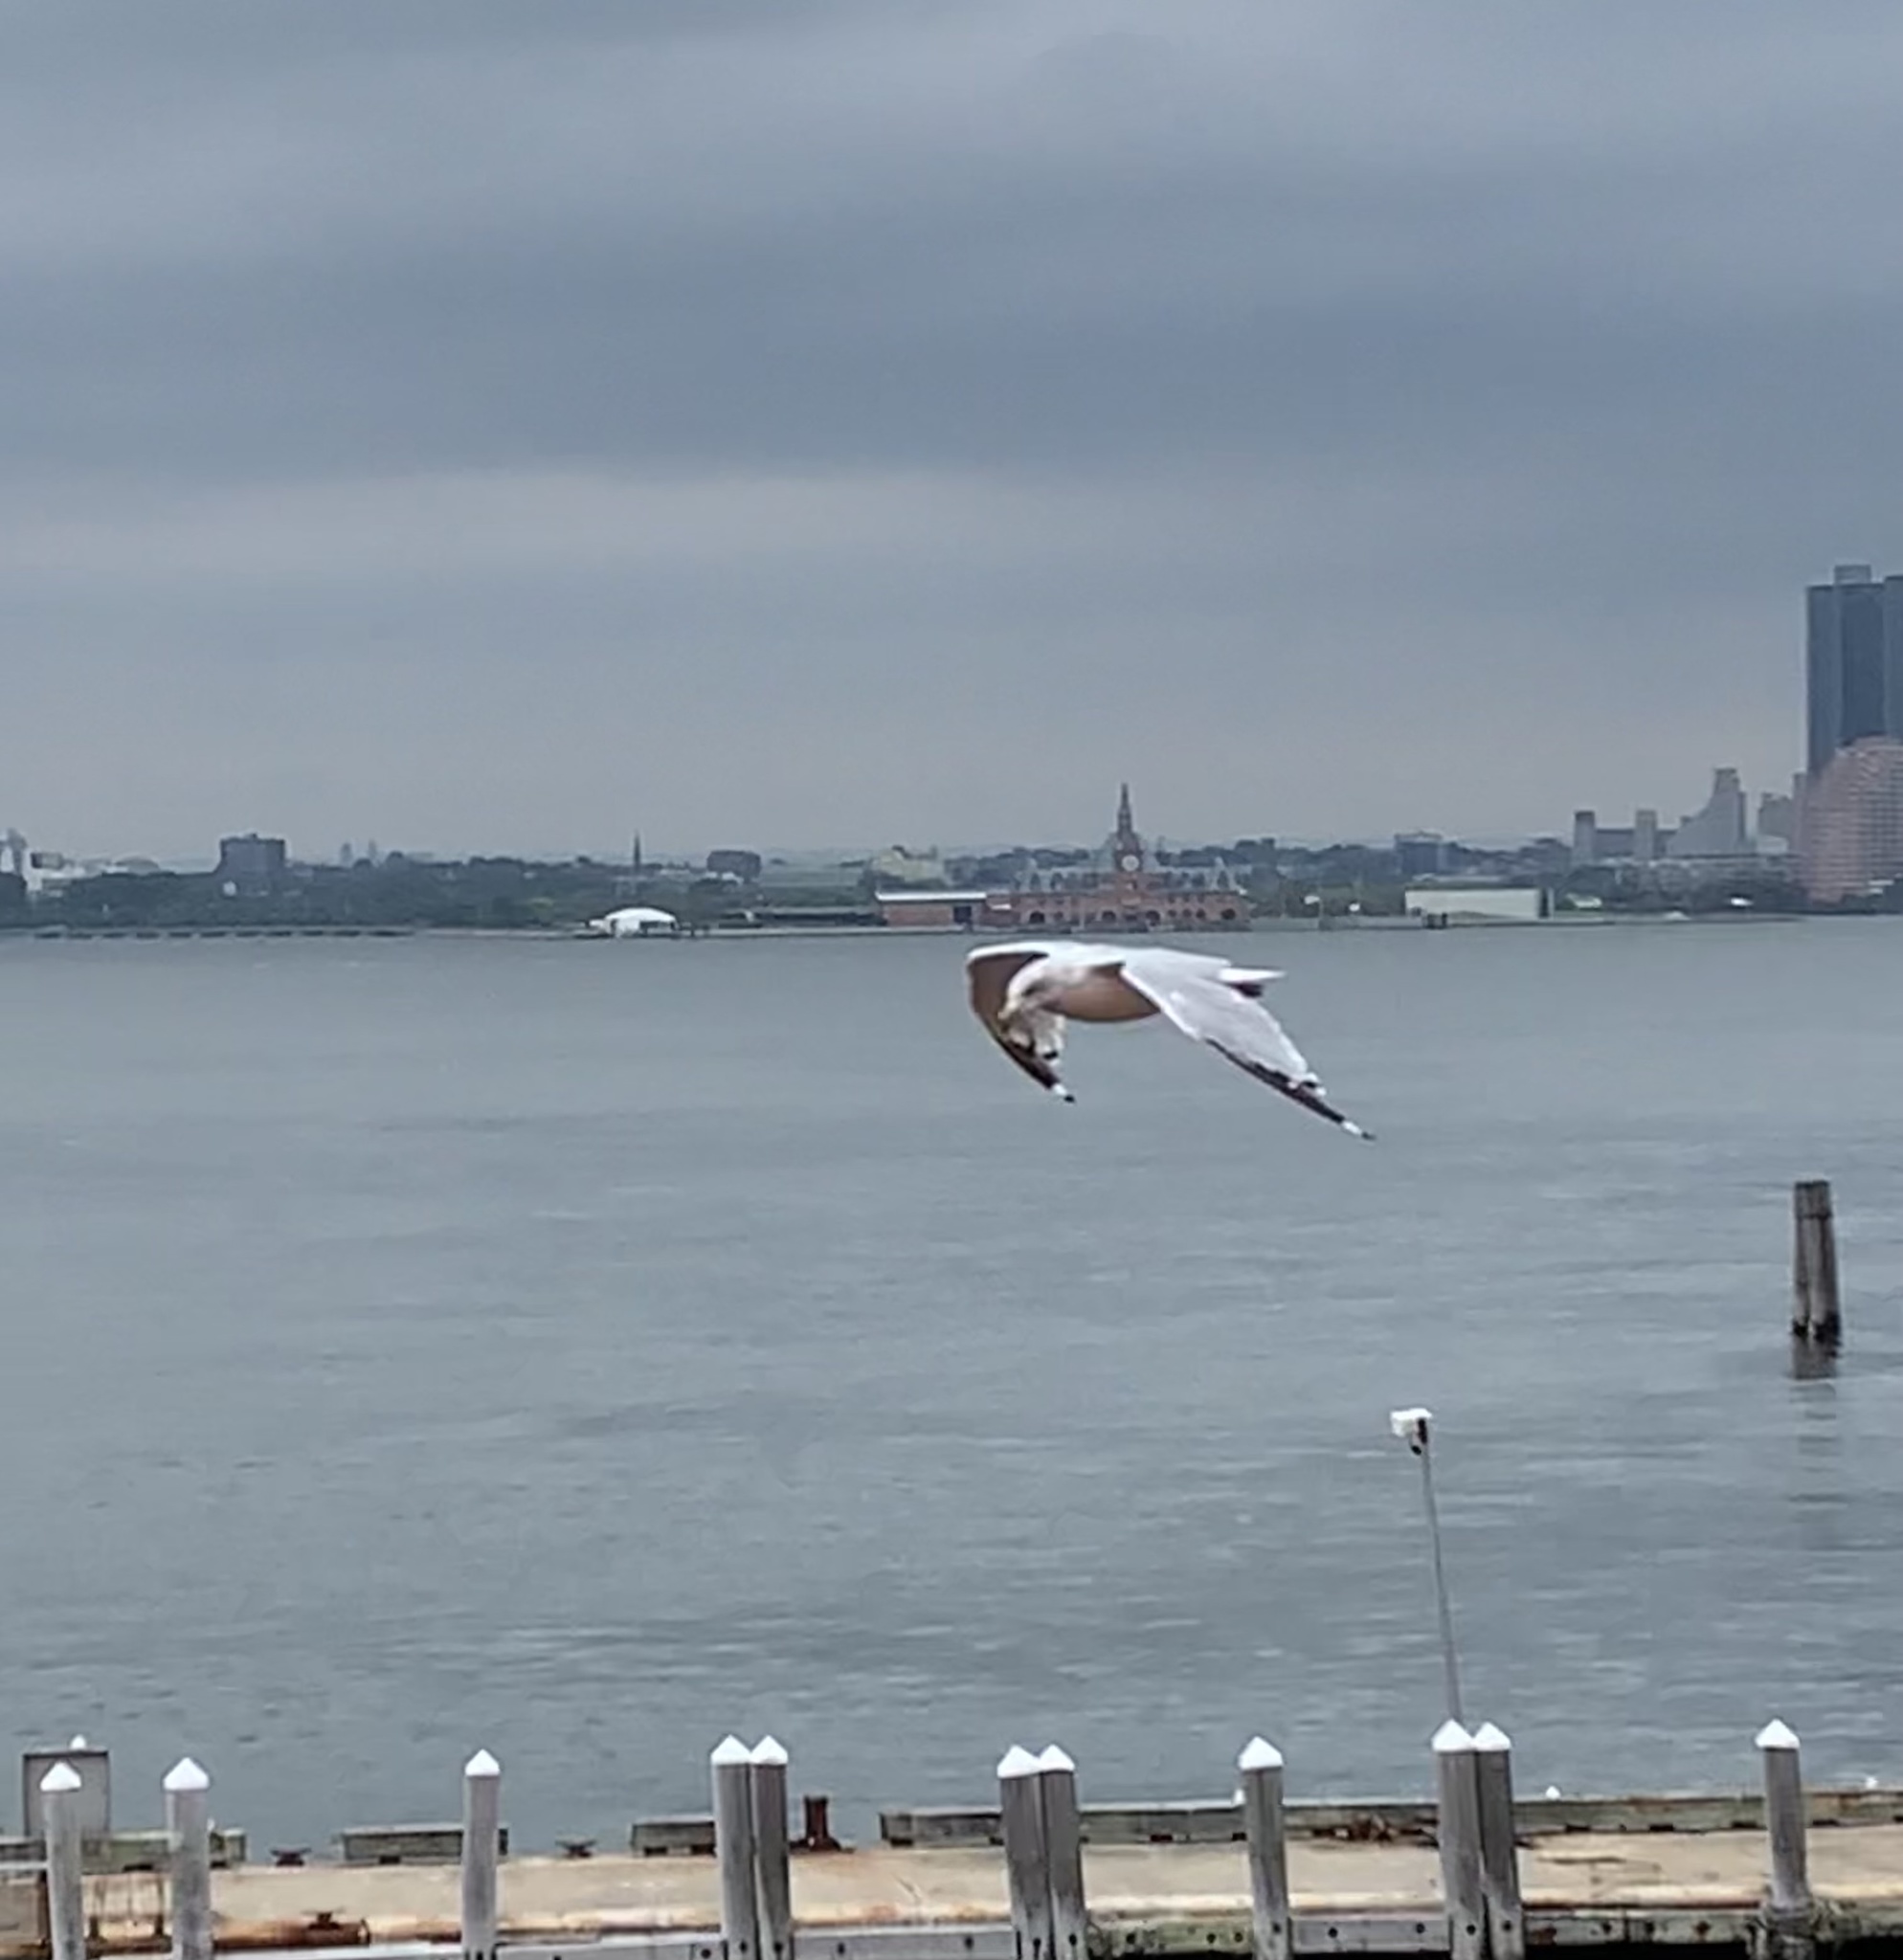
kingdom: Animalia
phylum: Chordata
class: Aves
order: Charadriiformes
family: Laridae
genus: Larus
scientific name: Larus delawarensis
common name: Ring-billed gull
